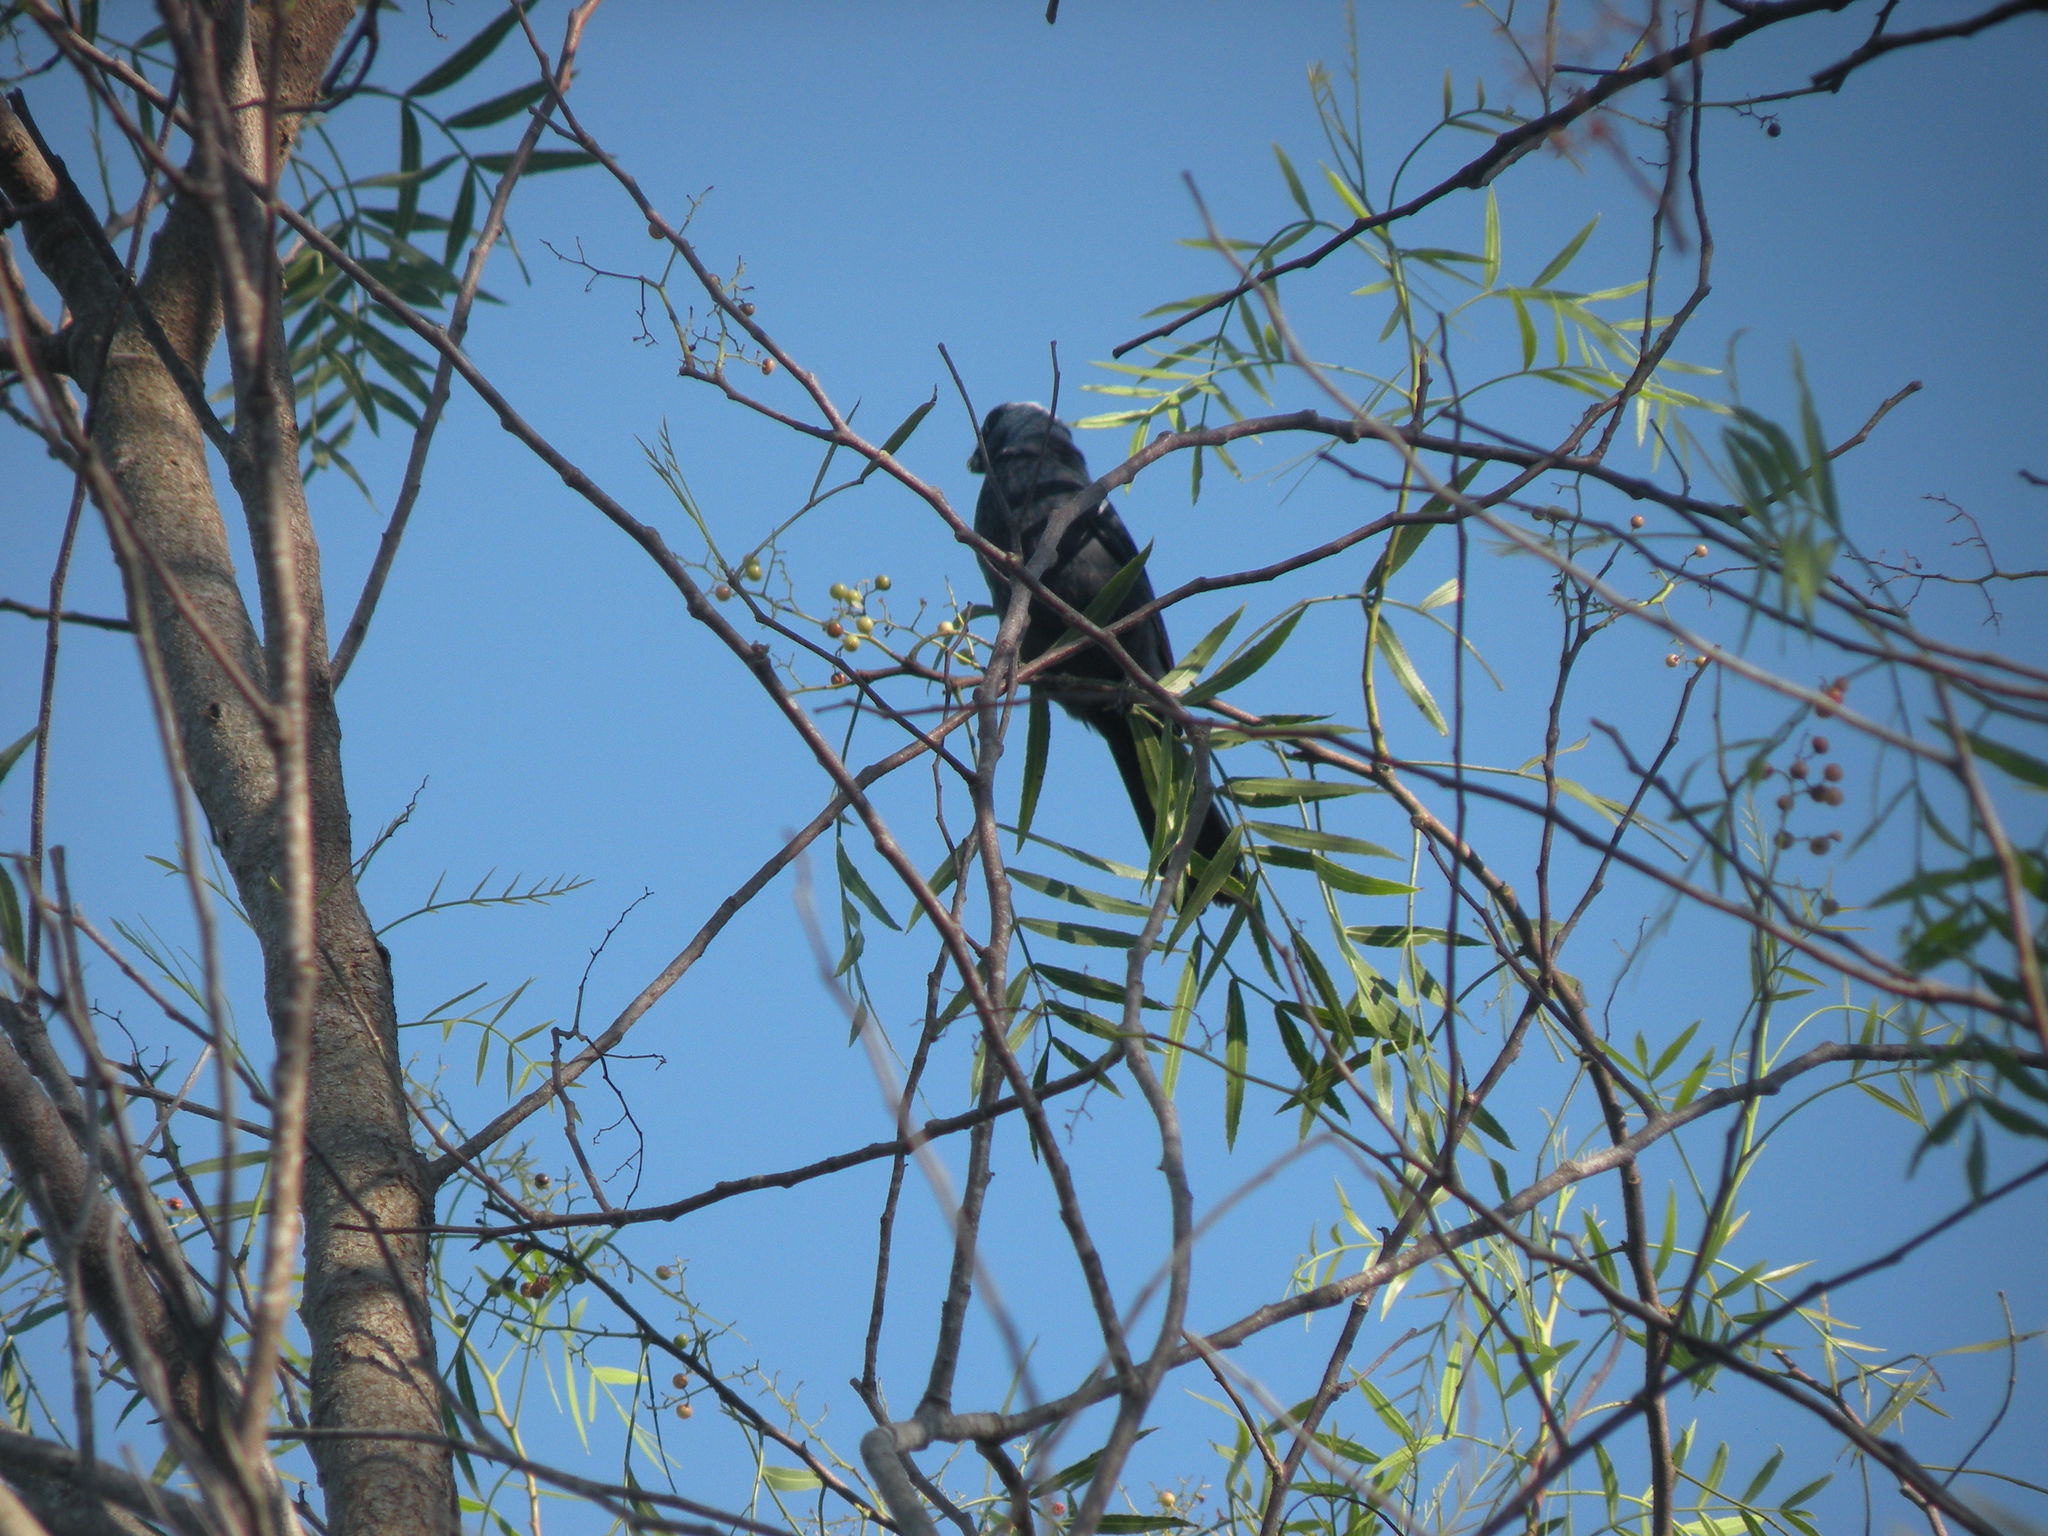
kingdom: Animalia
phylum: Chordata
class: Aves
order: Passeriformes
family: Thraupidae
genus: Stephanophorus
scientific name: Stephanophorus diadematus
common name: Diademed tanager
